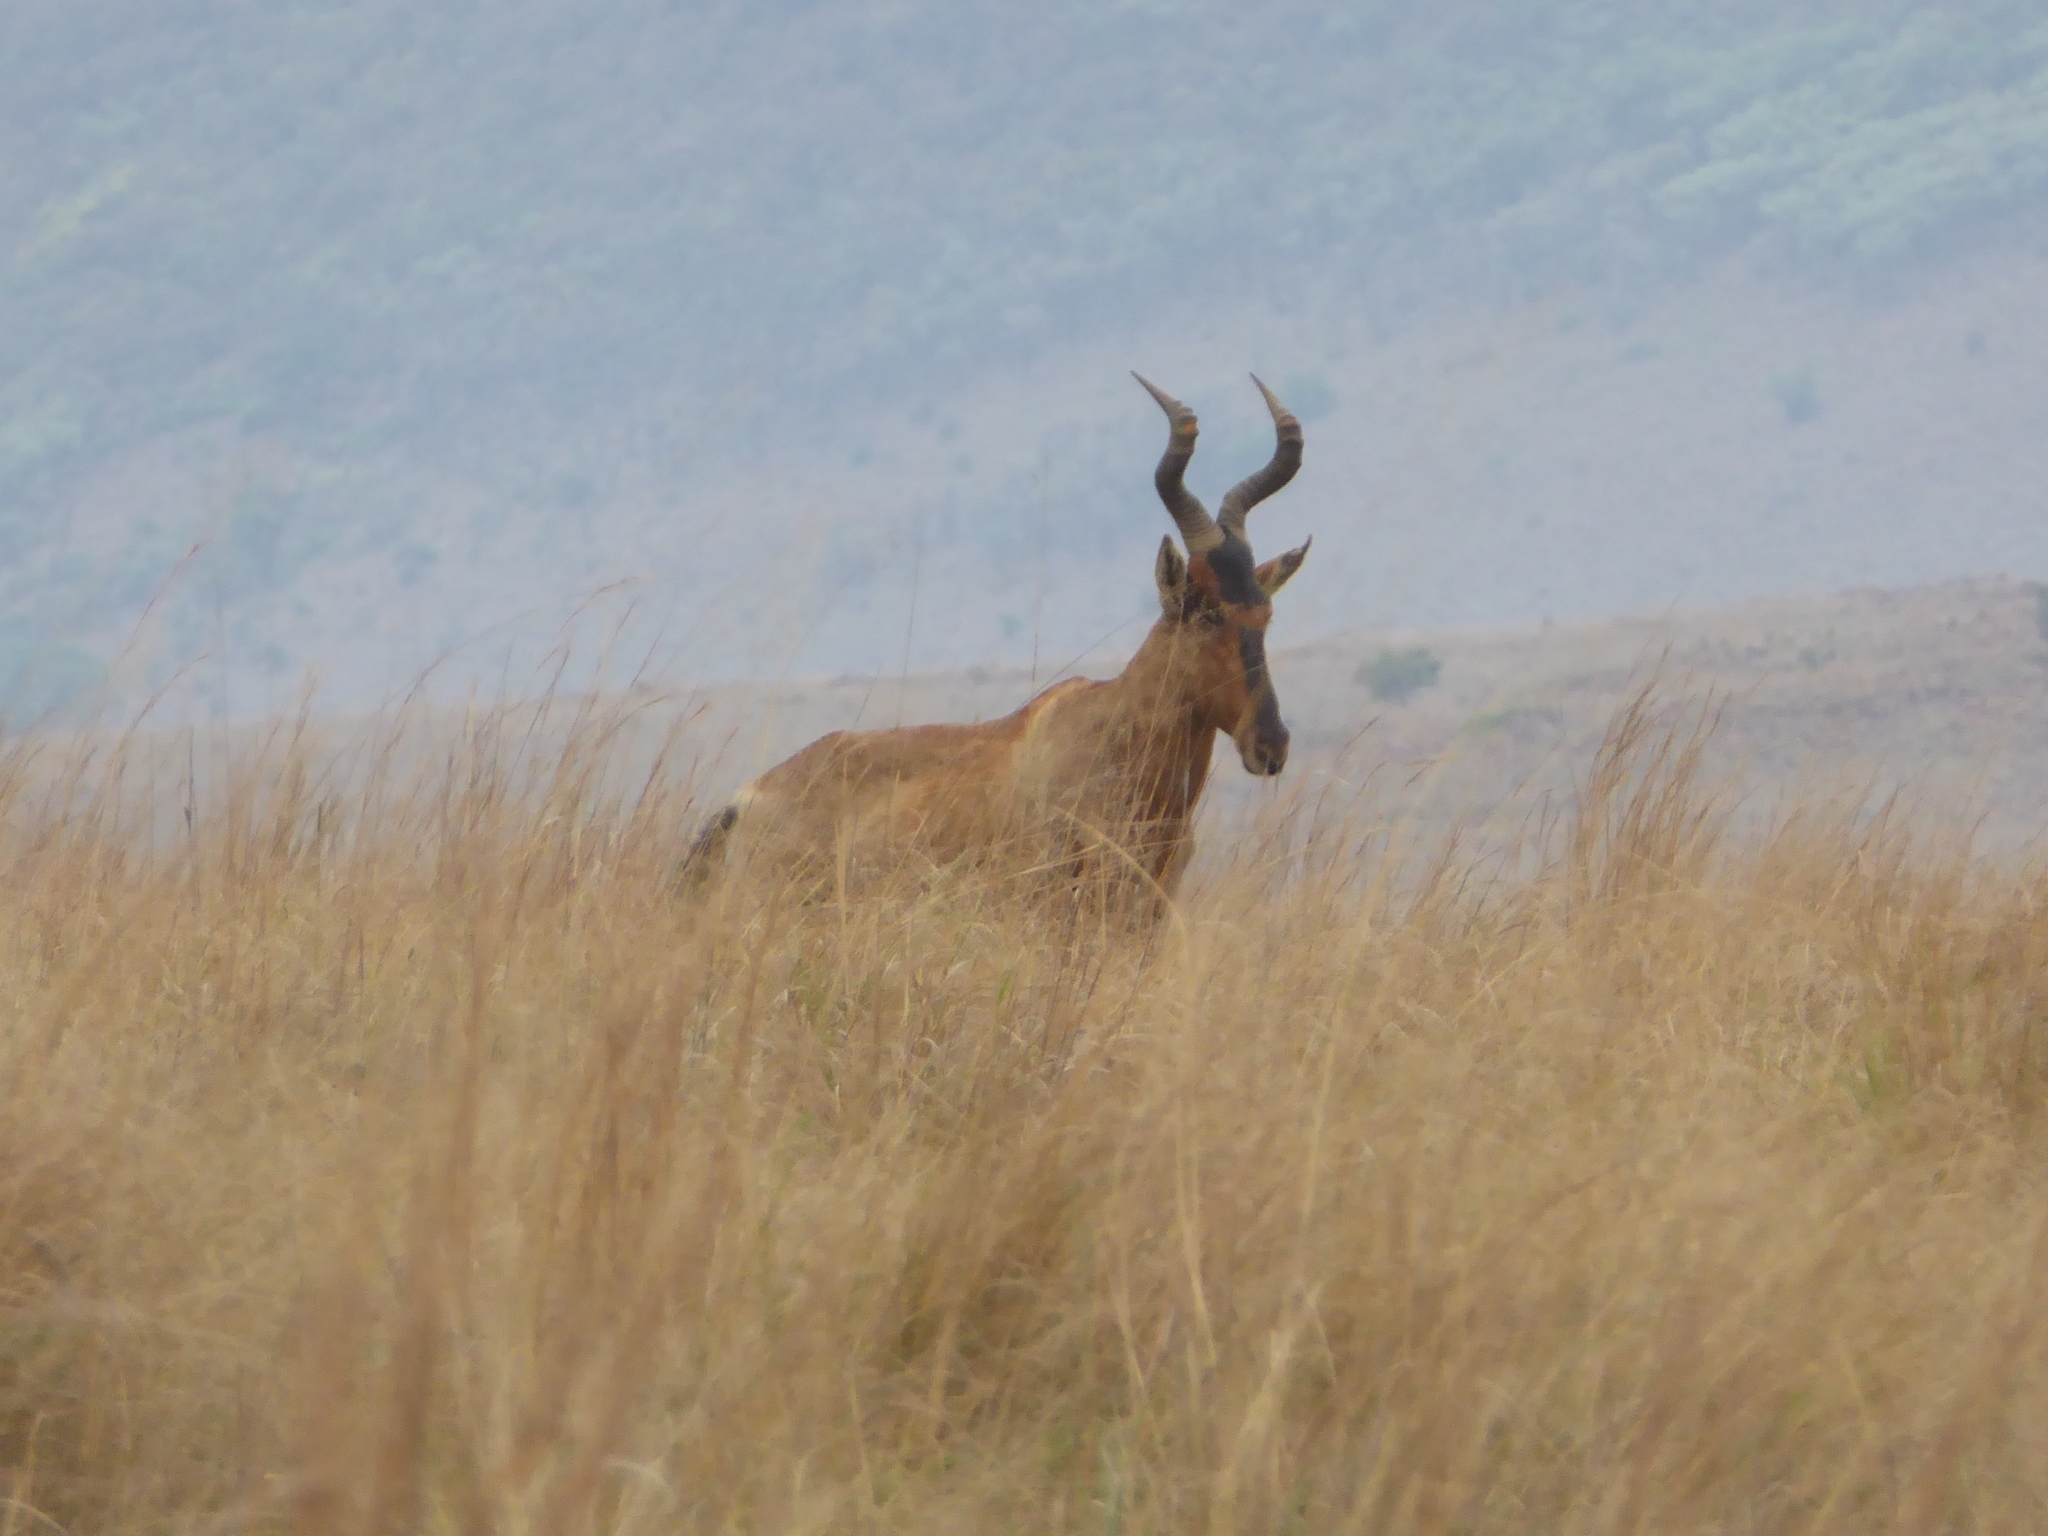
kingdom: Animalia
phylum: Chordata
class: Mammalia
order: Artiodactyla
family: Bovidae
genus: Alcelaphus
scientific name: Alcelaphus caama
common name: Red hartebeest
